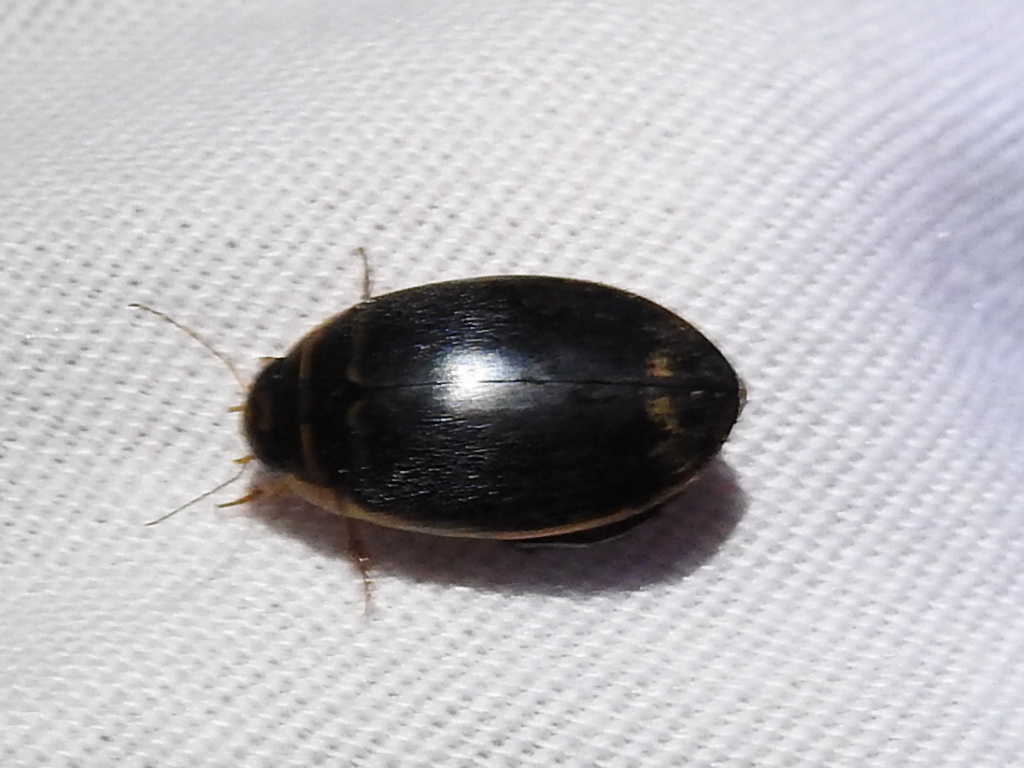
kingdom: Animalia
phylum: Arthropoda
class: Insecta
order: Coleoptera
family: Dytiscidae
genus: Thermonectus
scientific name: Thermonectus basillaris
